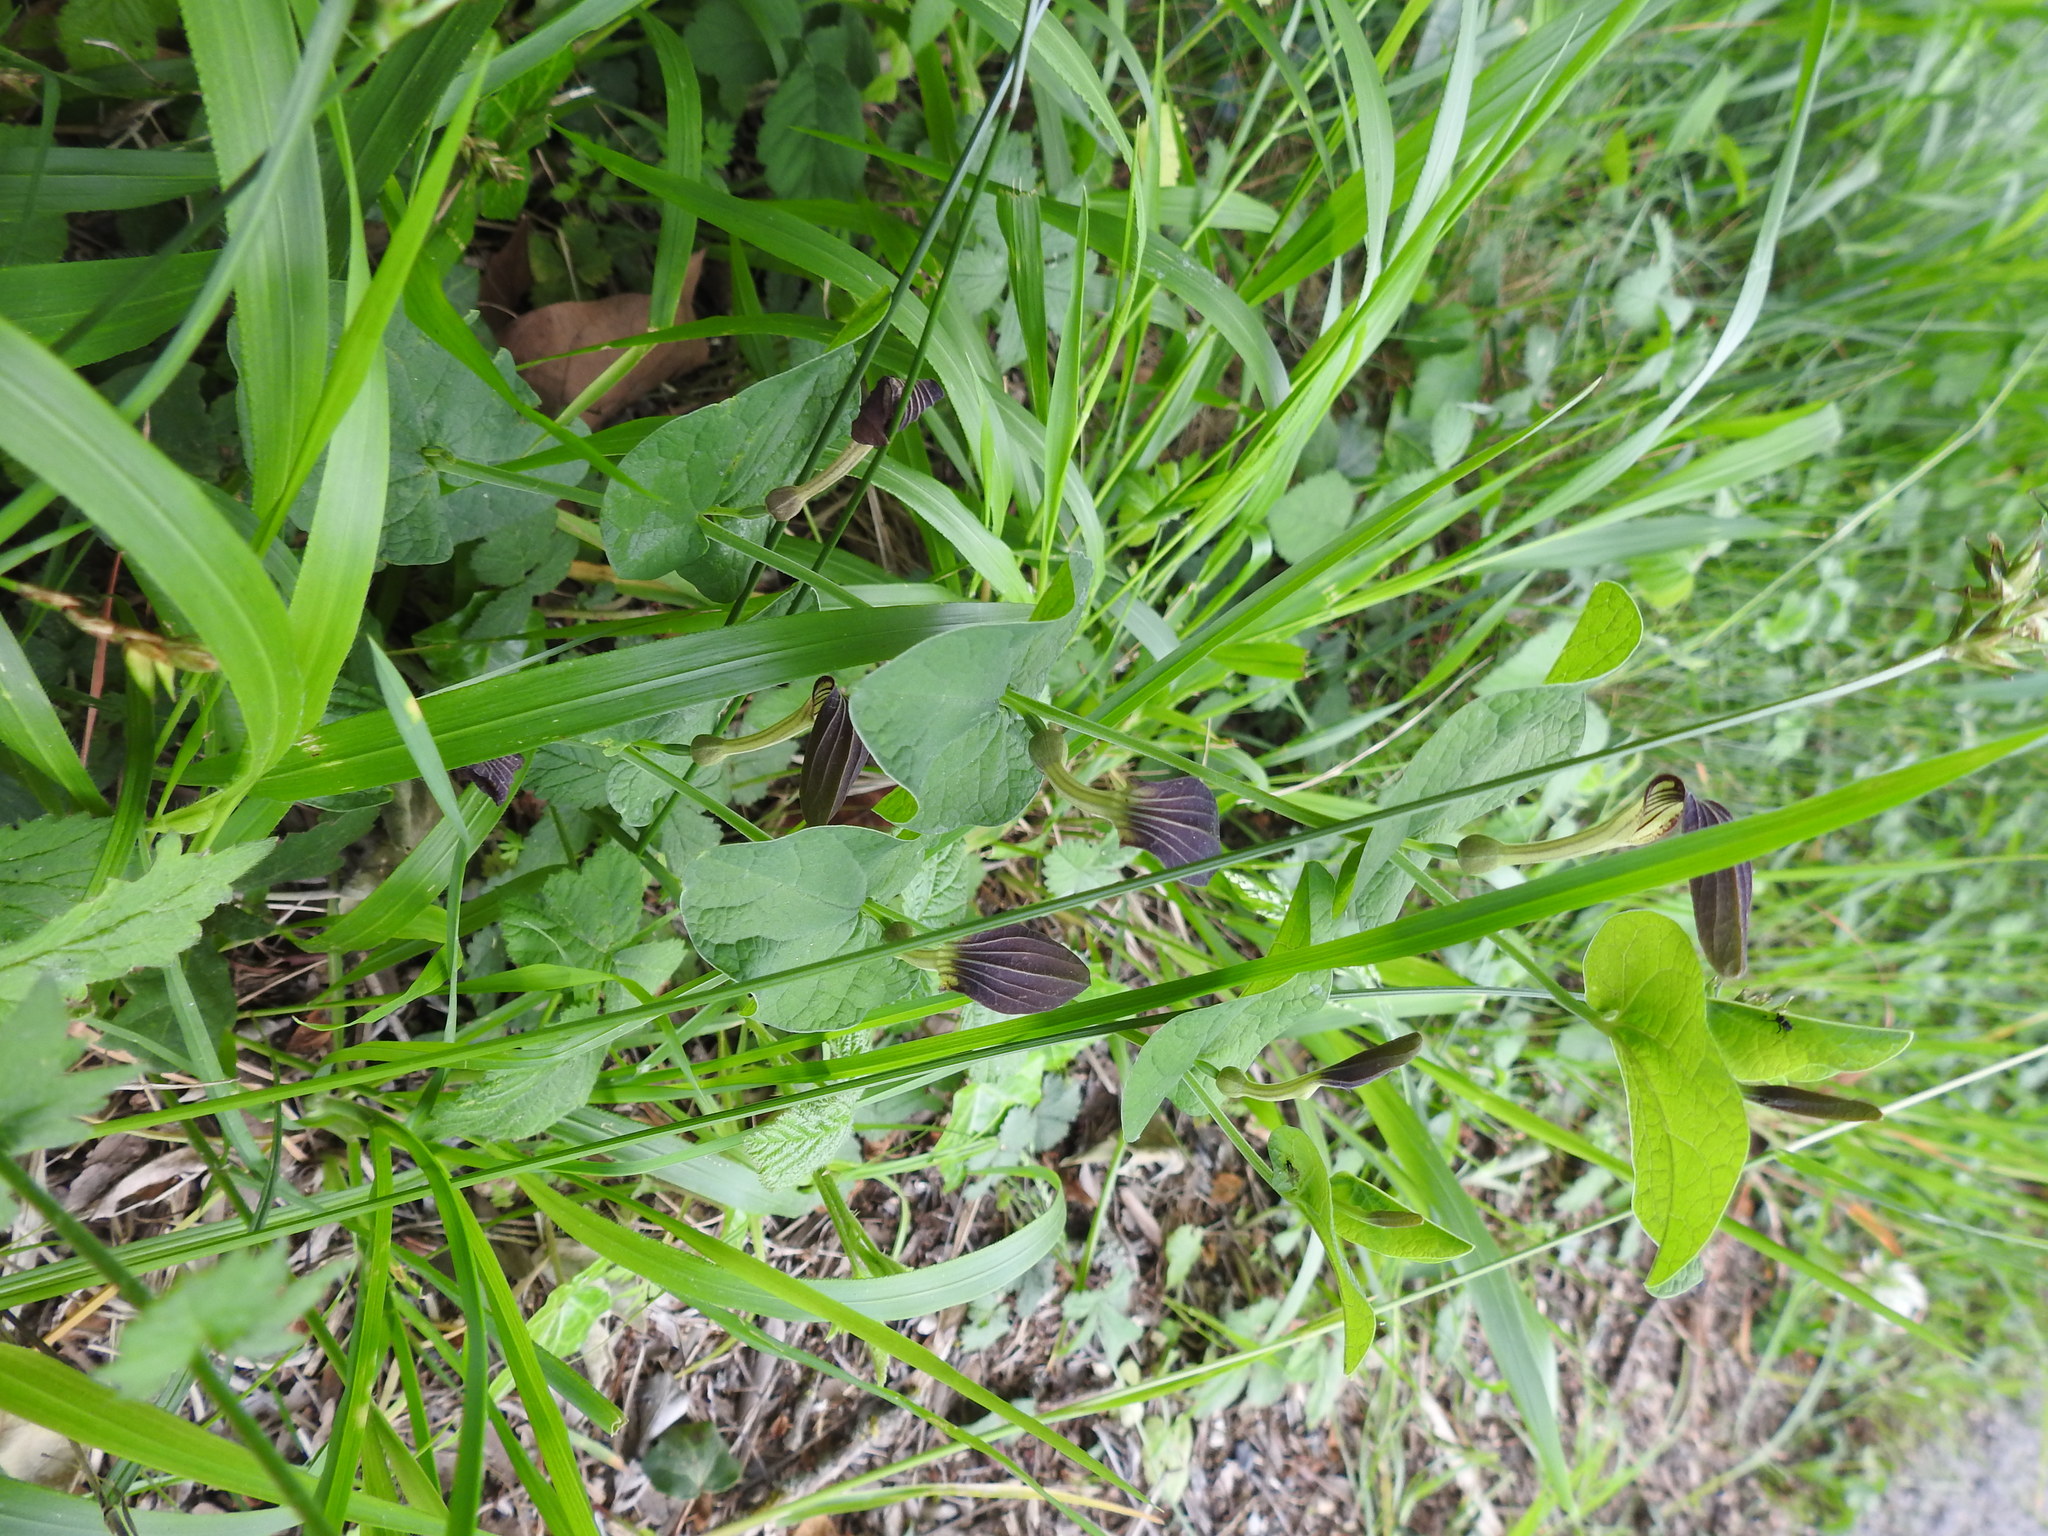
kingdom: Plantae
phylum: Tracheophyta
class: Magnoliopsida
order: Piperales
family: Aristolochiaceae
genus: Aristolochia
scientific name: Aristolochia rotunda
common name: Smearwort
